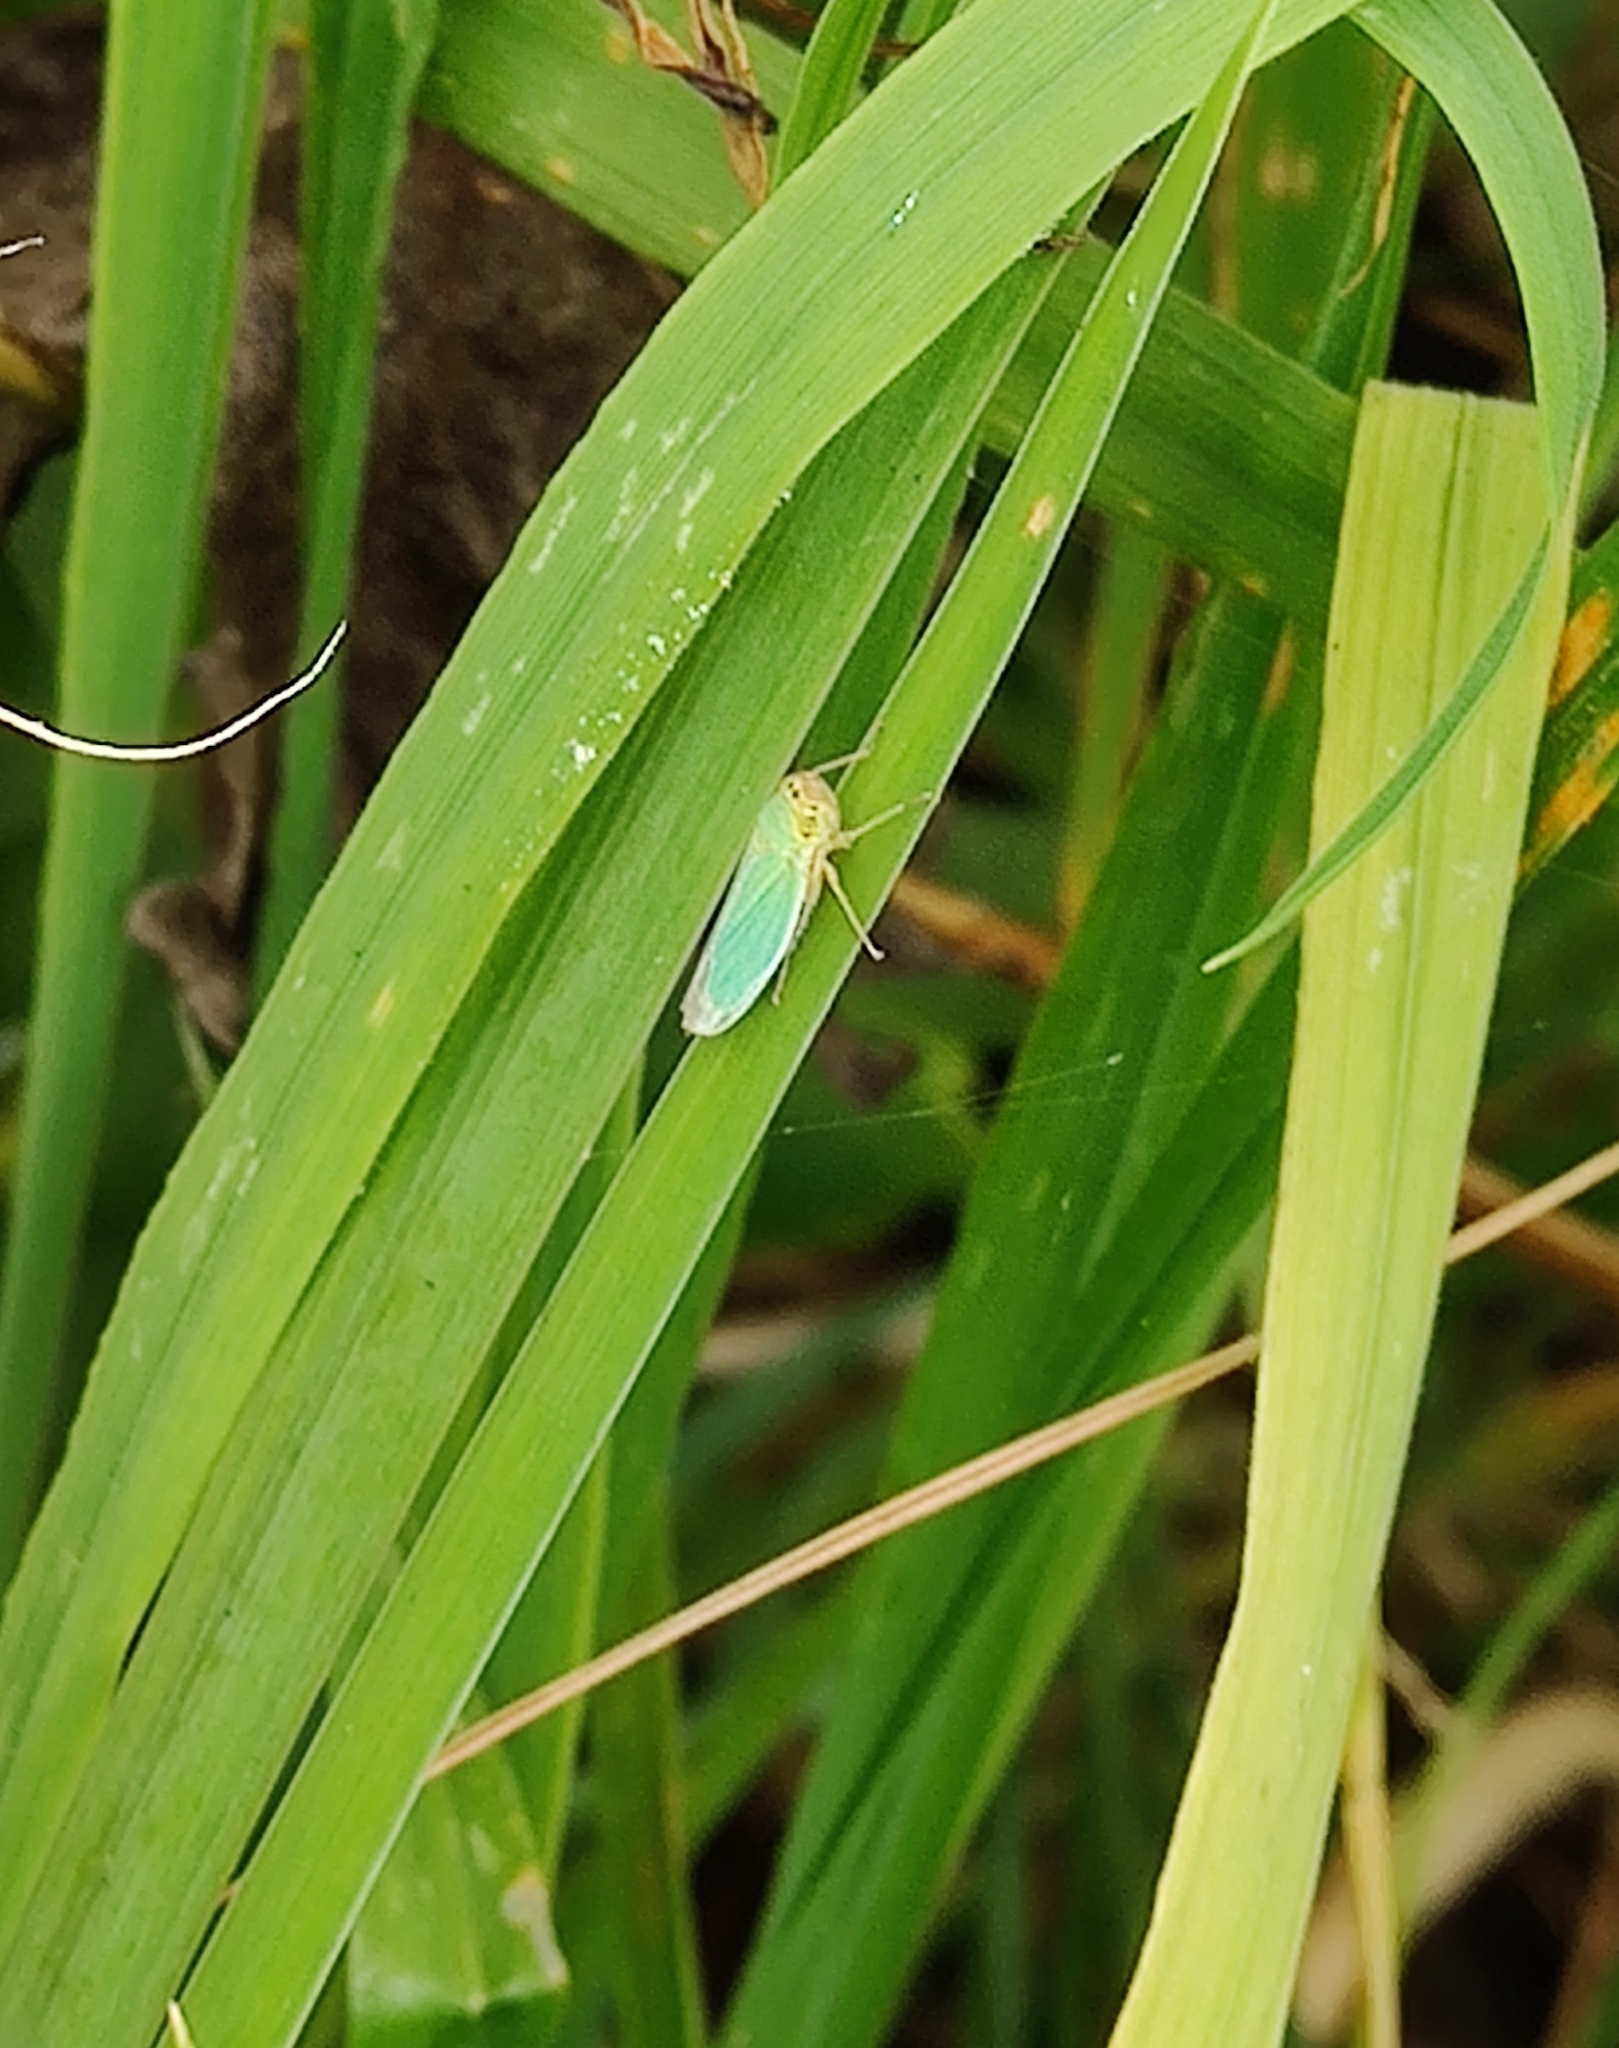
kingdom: Animalia
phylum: Arthropoda
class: Insecta
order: Hemiptera
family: Cicadellidae
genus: Cicadella
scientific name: Cicadella viridis
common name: Leafhopper
